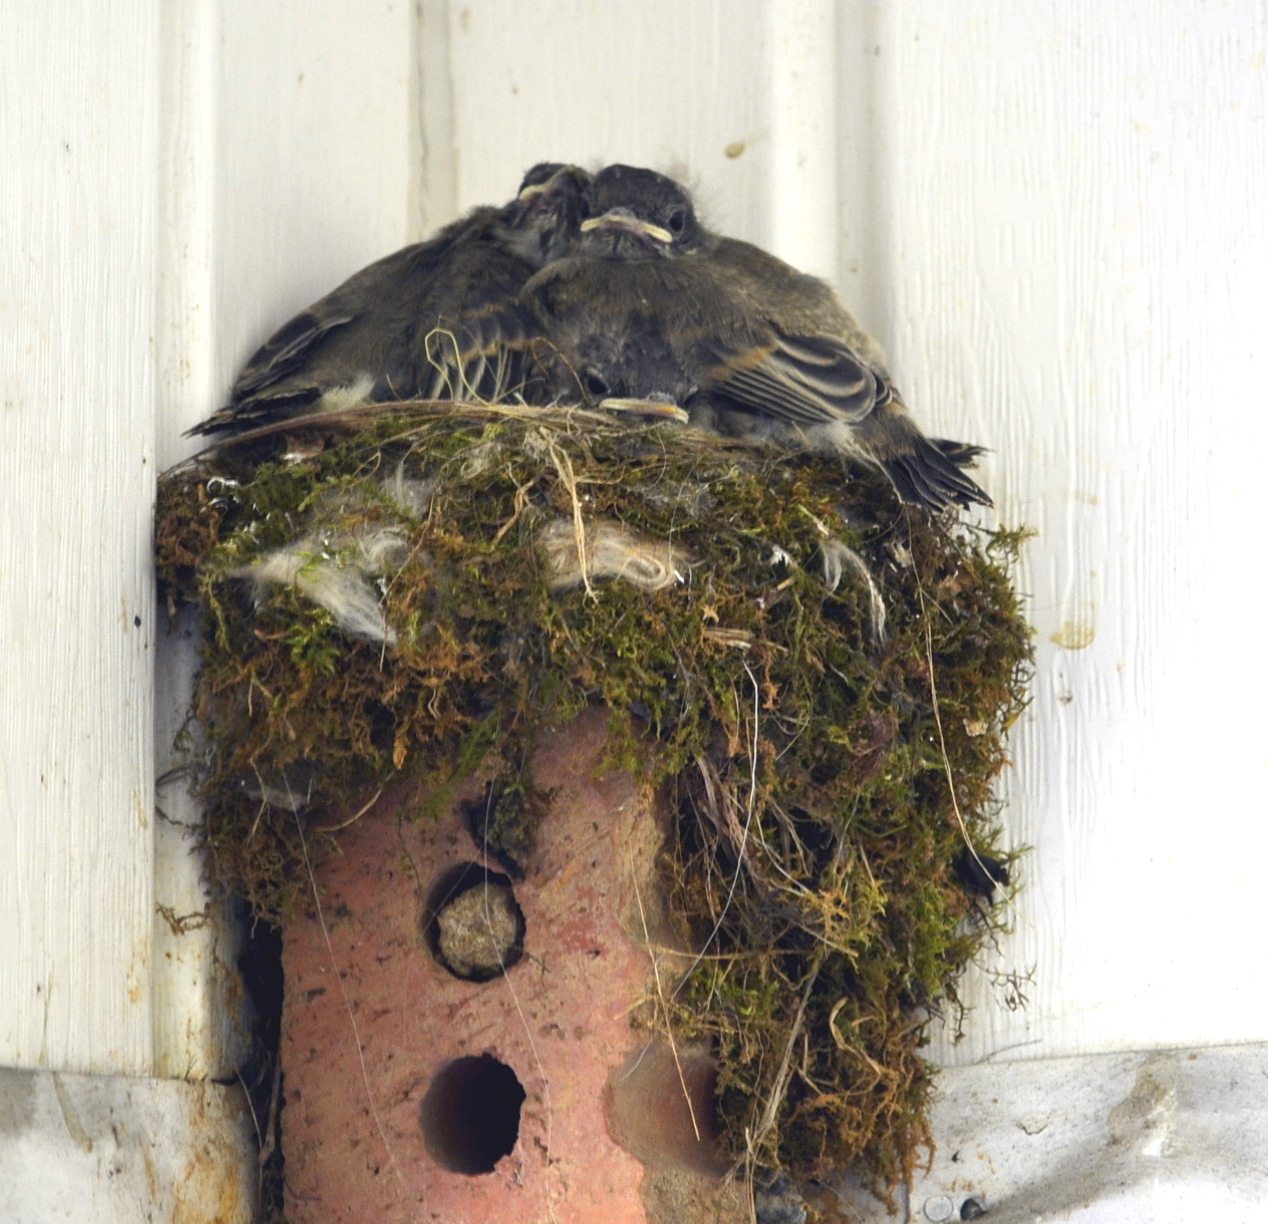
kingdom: Animalia
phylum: Chordata
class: Aves
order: Passeriformes
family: Tyrannidae
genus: Sayornis
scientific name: Sayornis phoebe
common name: Eastern phoebe
